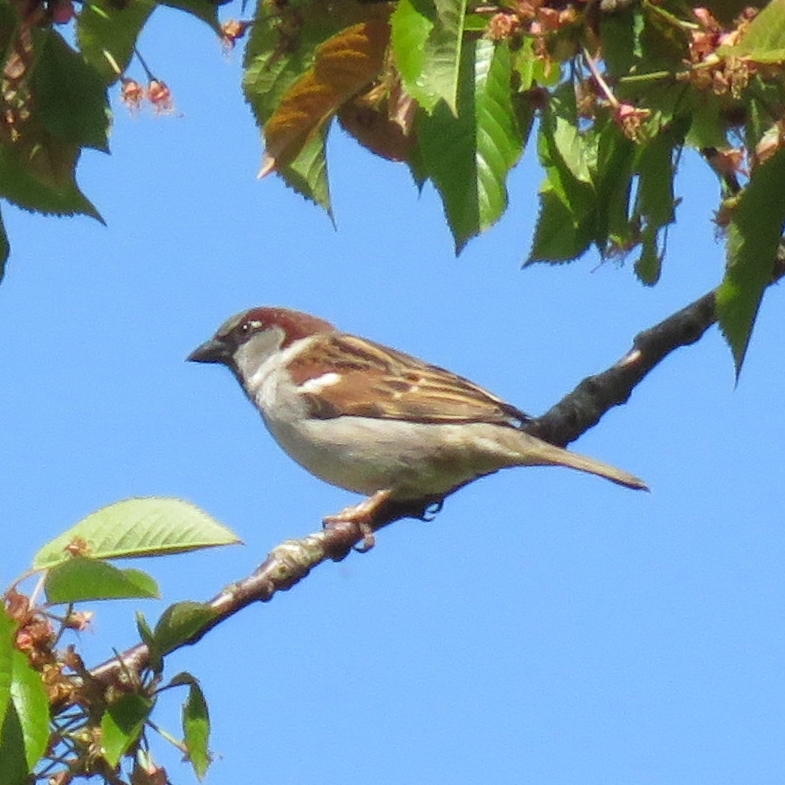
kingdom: Animalia
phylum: Chordata
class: Aves
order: Passeriformes
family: Passeridae
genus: Passer
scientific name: Passer domesticus
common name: House sparrow
